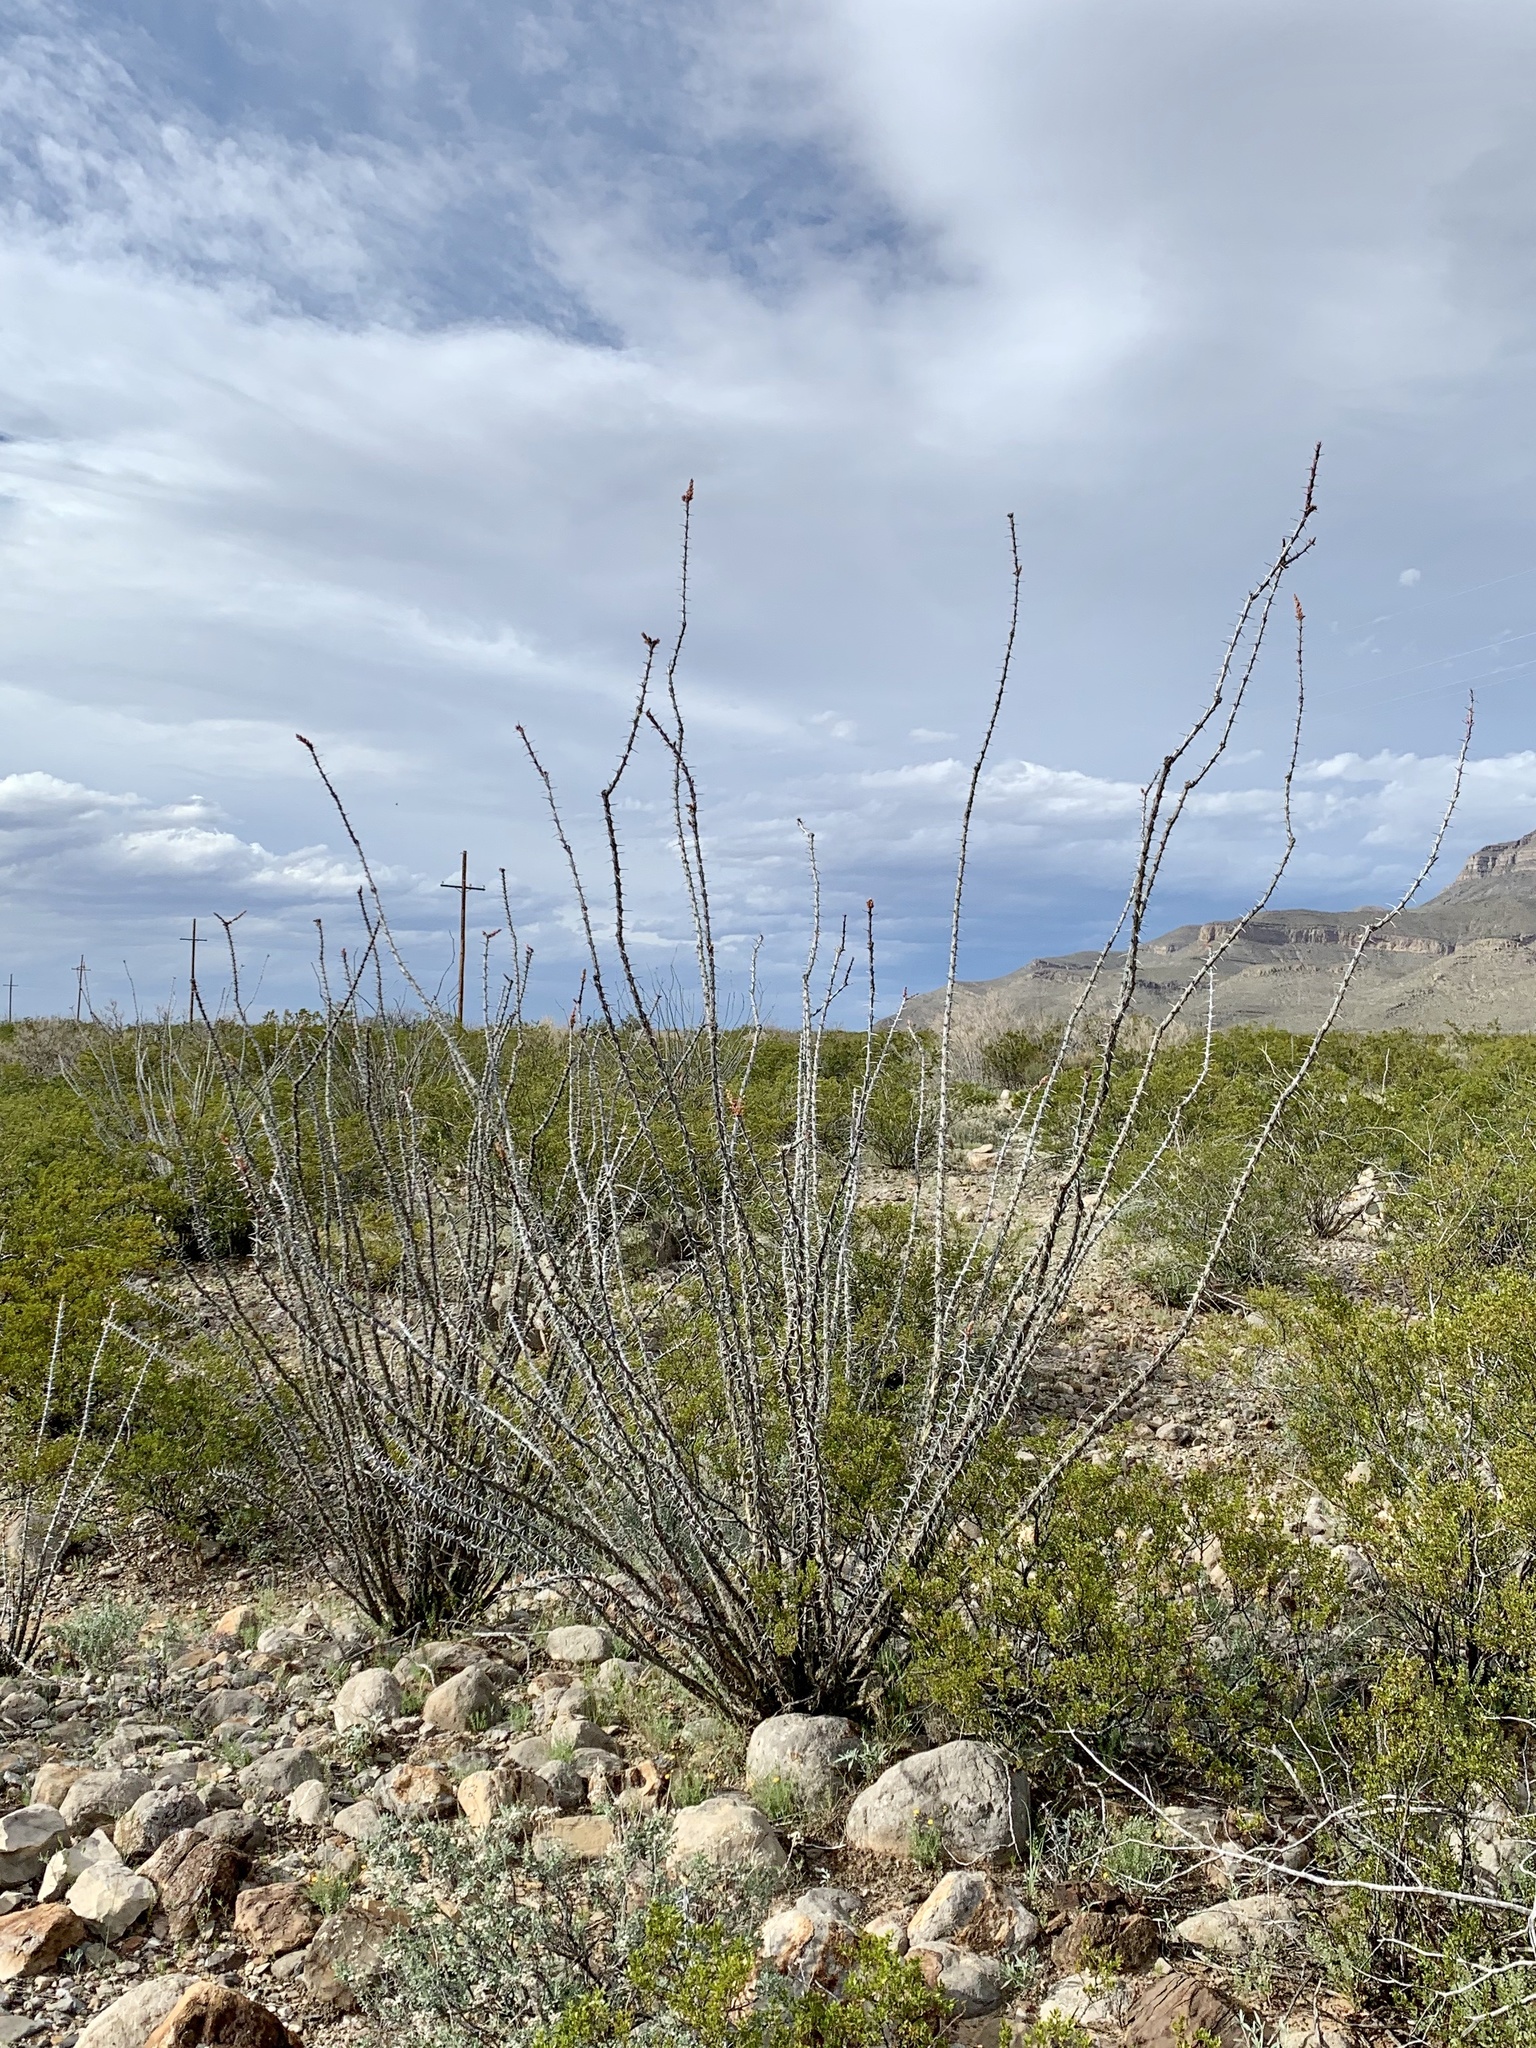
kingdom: Plantae
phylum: Tracheophyta
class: Magnoliopsida
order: Ericales
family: Fouquieriaceae
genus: Fouquieria
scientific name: Fouquieria splendens
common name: Vine-cactus
